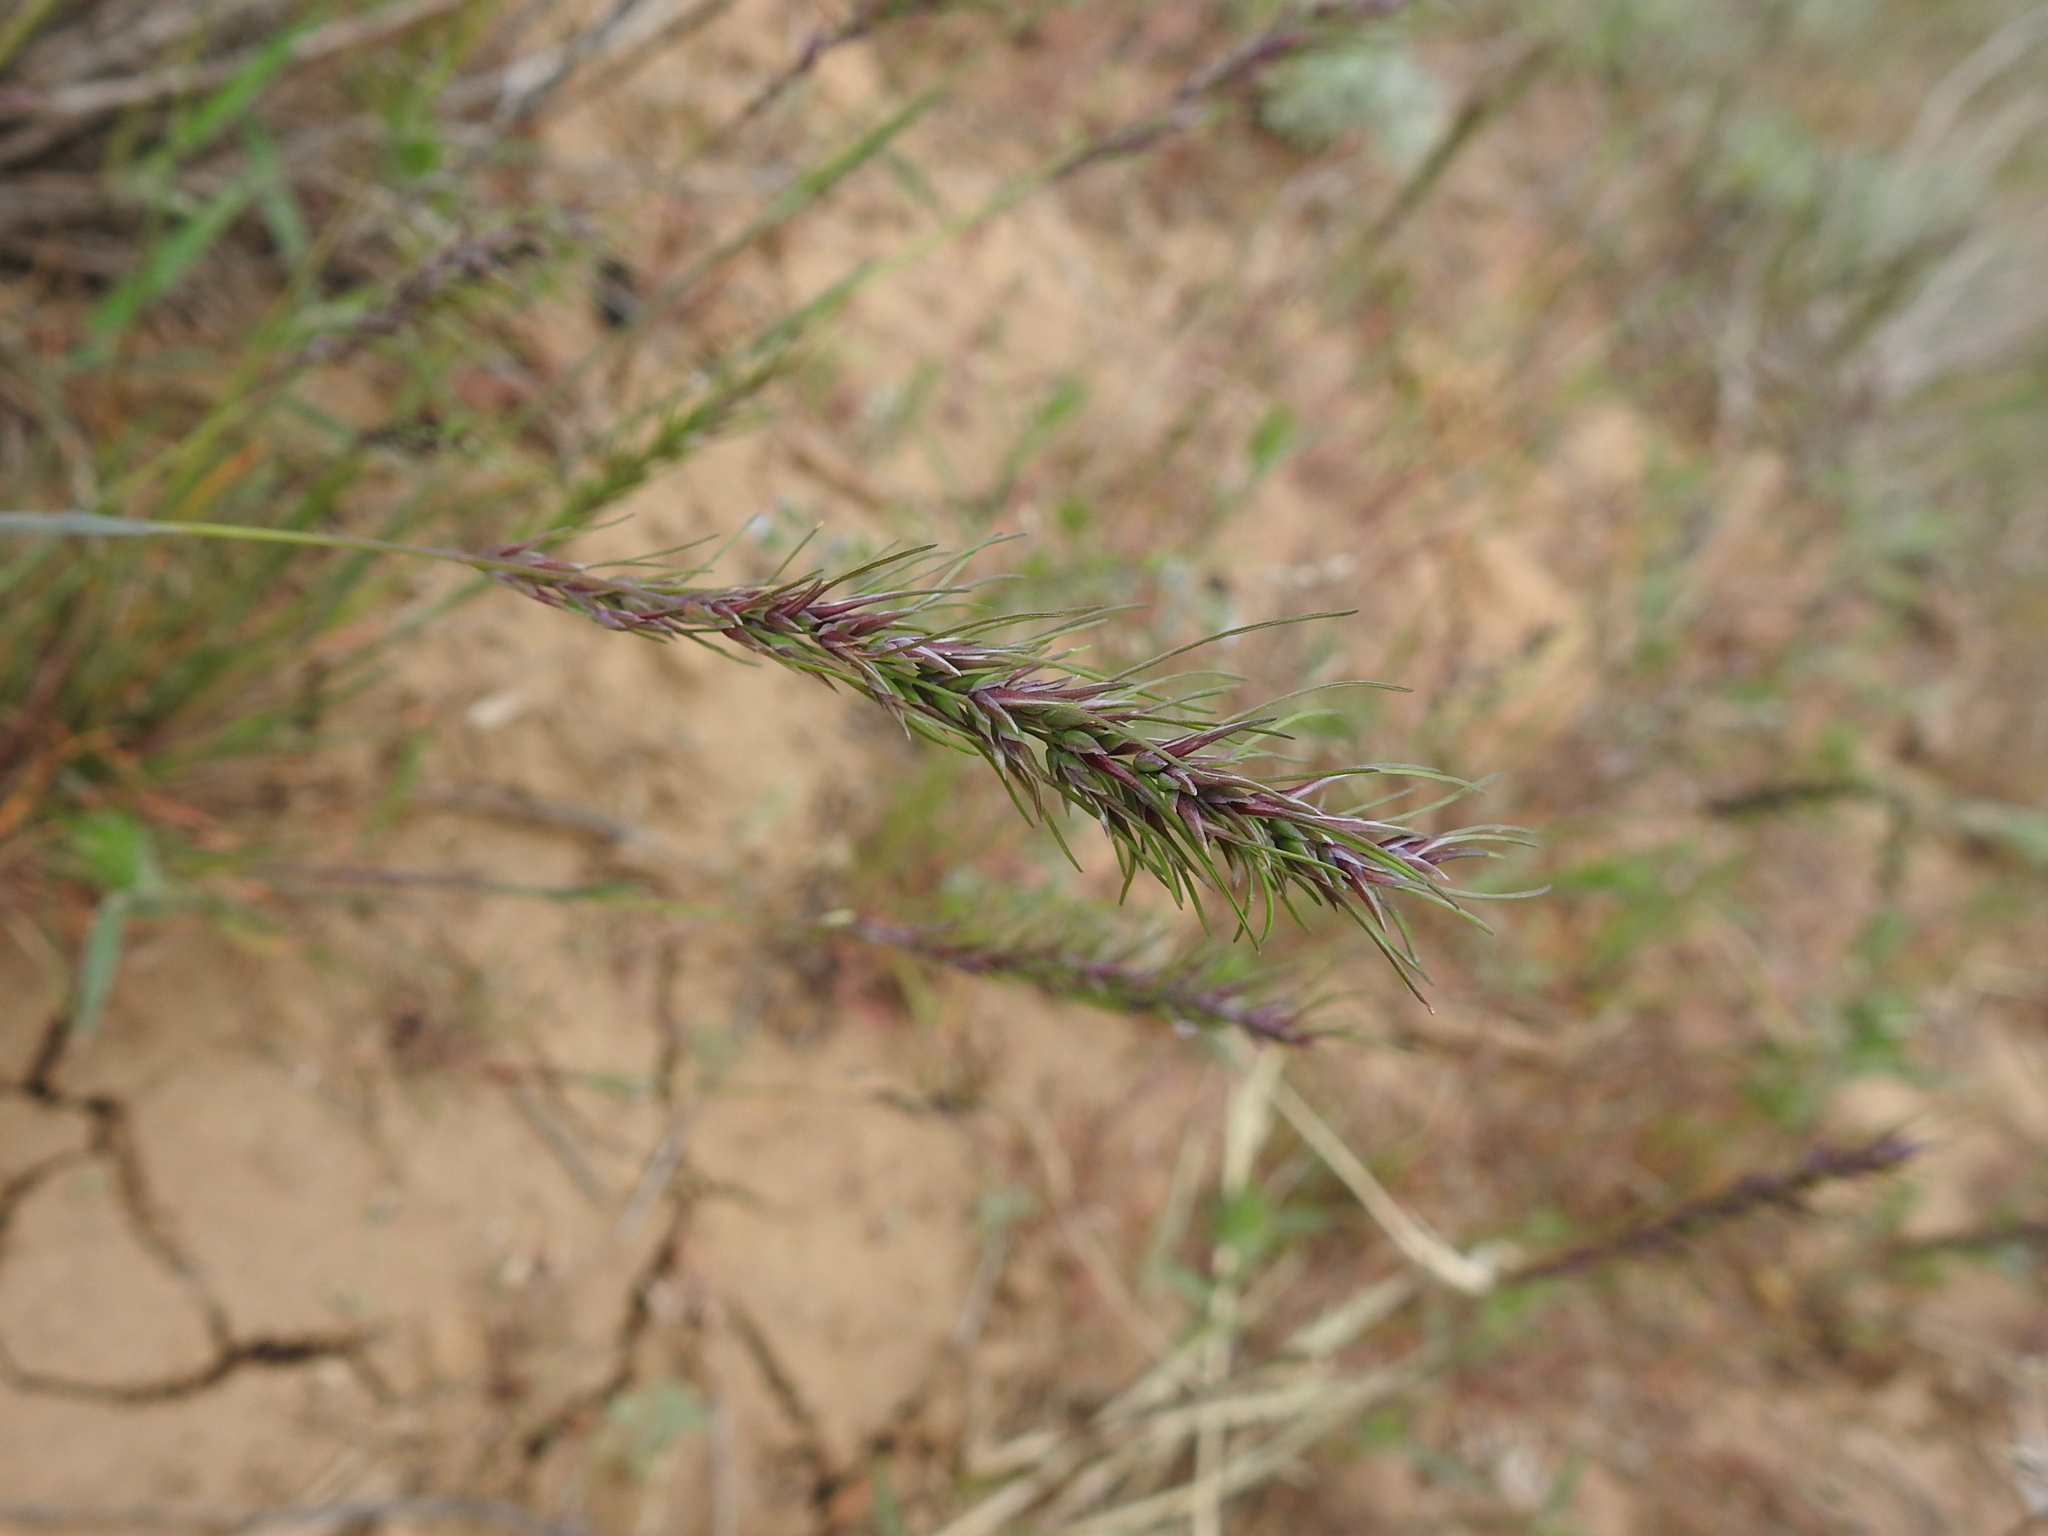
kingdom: Plantae
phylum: Tracheophyta
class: Liliopsida
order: Poales
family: Poaceae
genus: Poa
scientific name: Poa bulbosa
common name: Bulbous bluegrass
